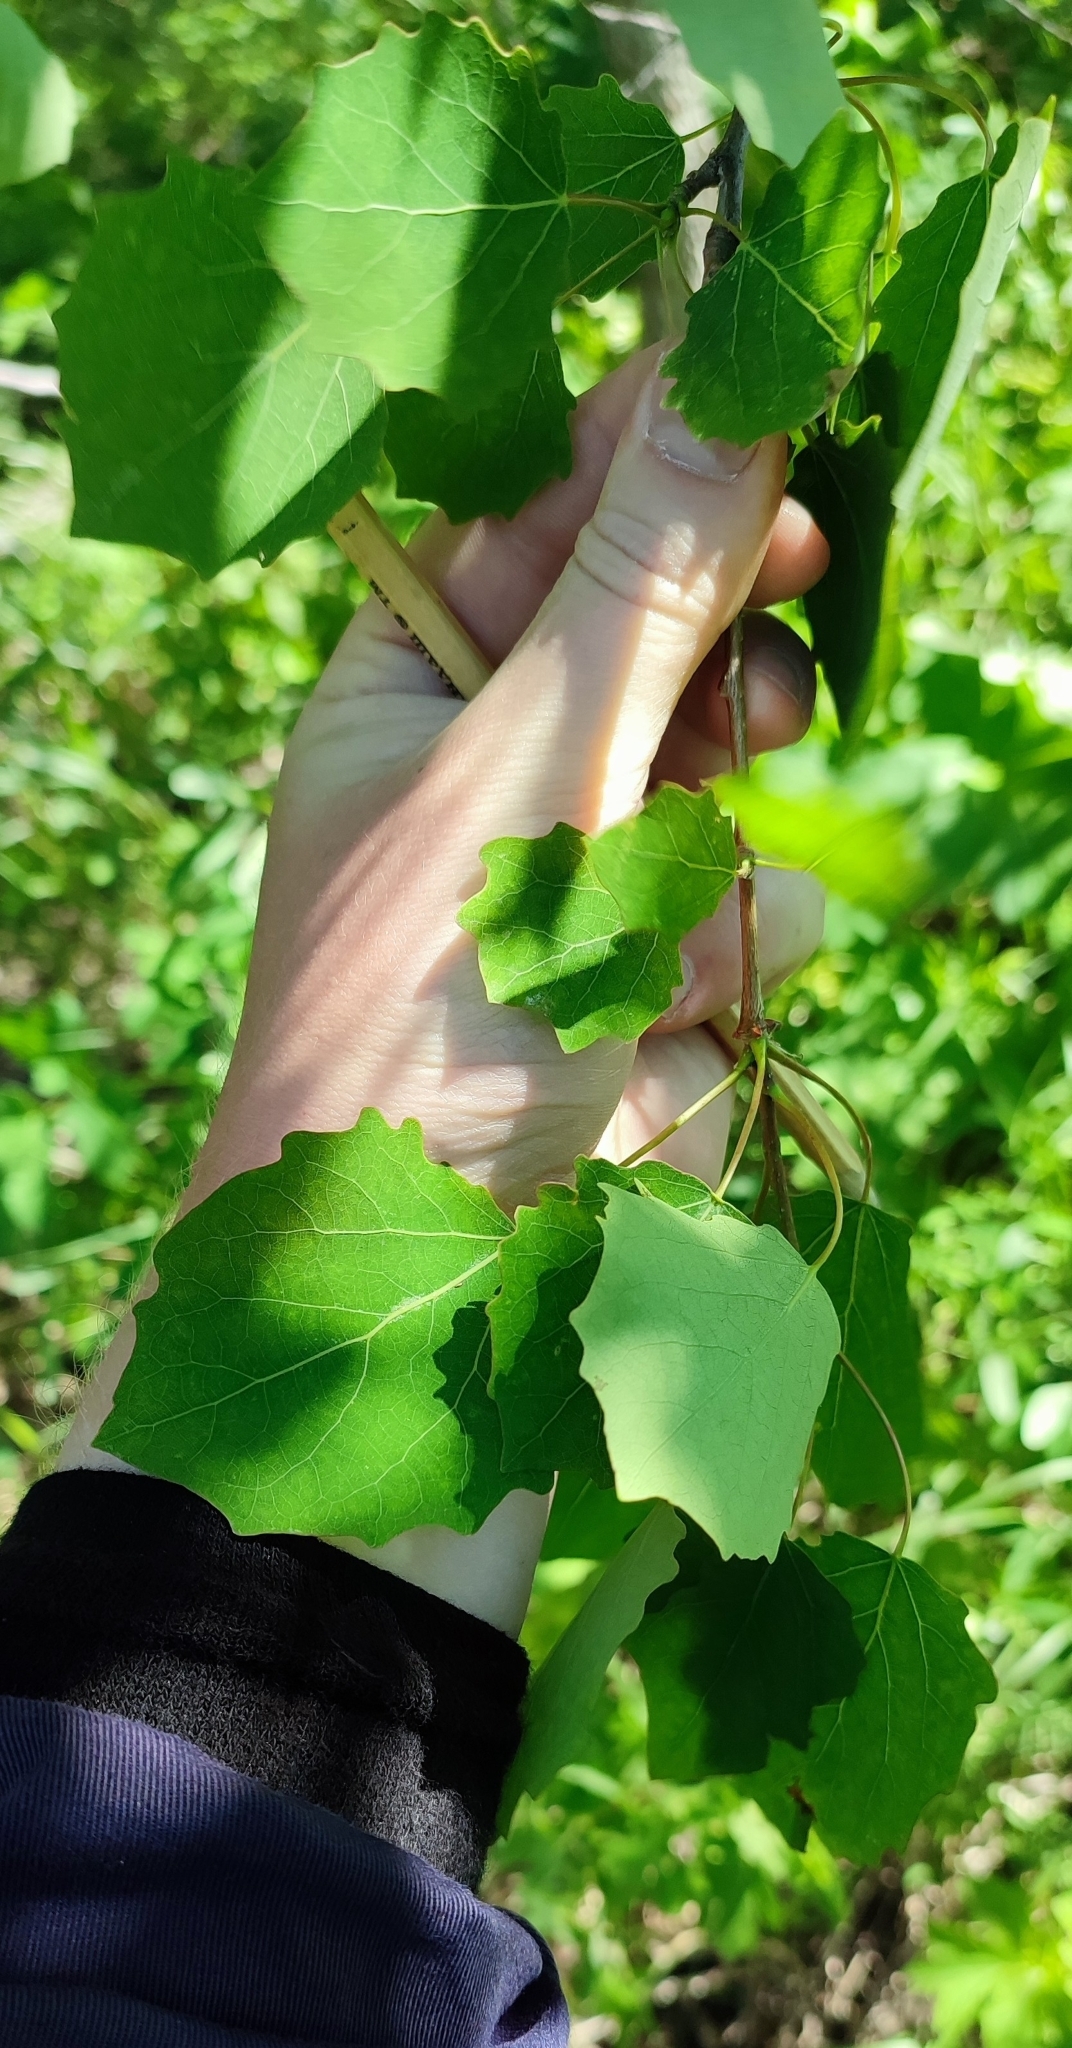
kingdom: Plantae
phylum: Tracheophyta
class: Magnoliopsida
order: Malpighiales
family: Salicaceae
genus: Populus
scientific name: Populus tremula
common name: European aspen
